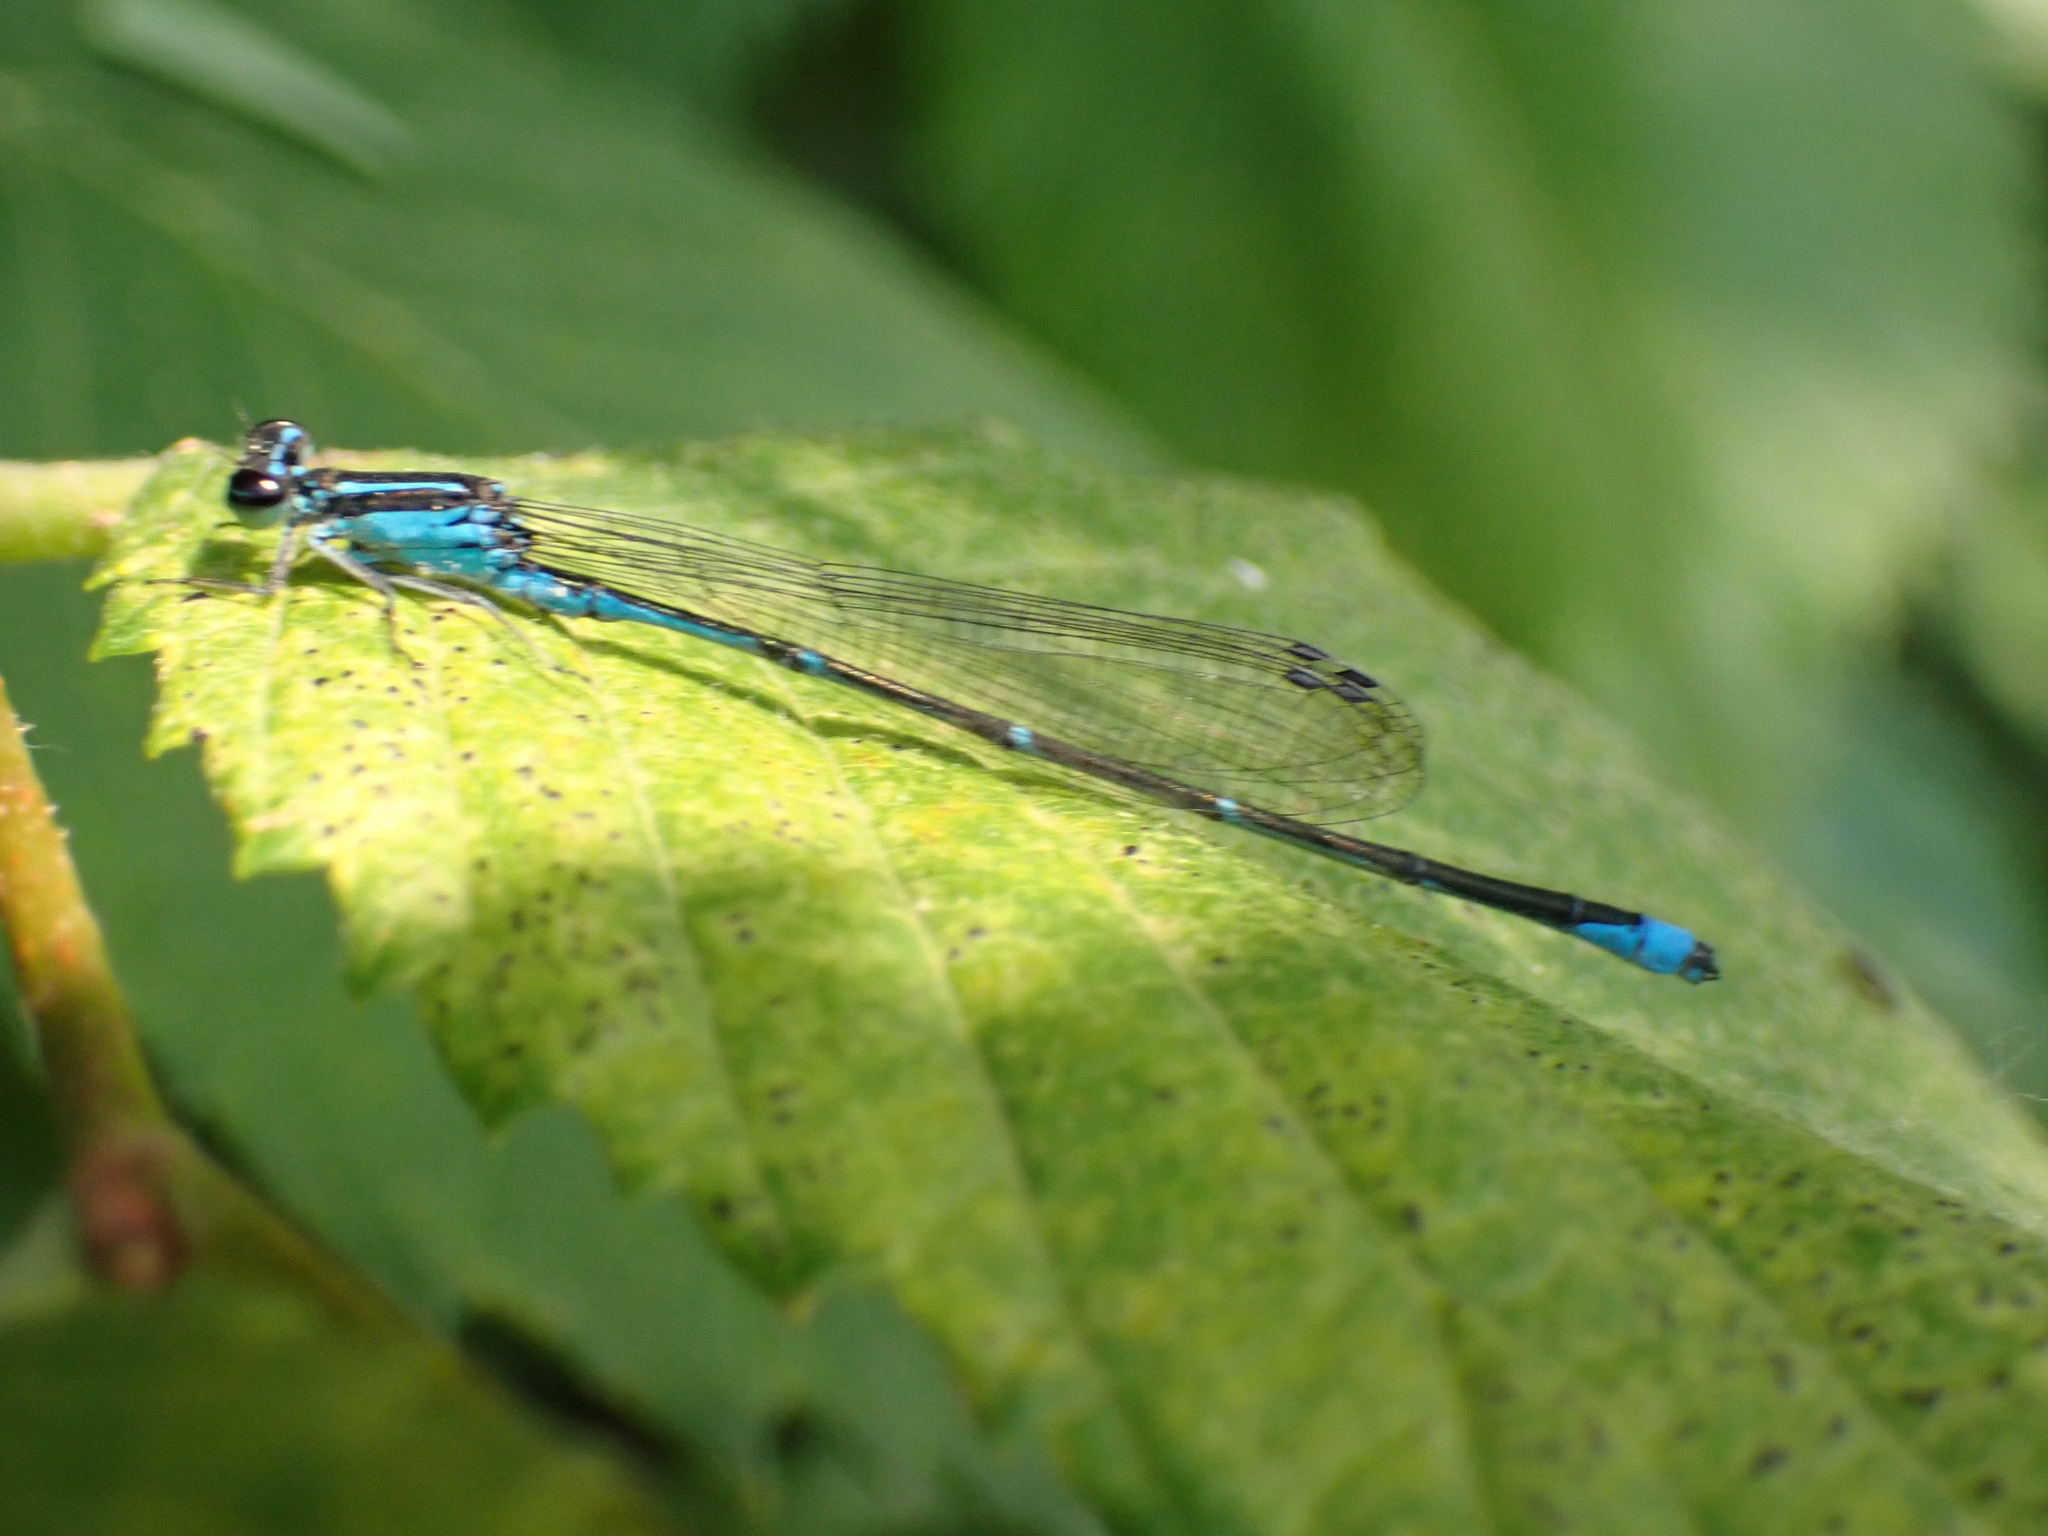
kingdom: Animalia
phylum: Arthropoda
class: Insecta
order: Odonata
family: Coenagrionidae
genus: Enallagma
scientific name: Enallagma exsulans
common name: Stream bluet
